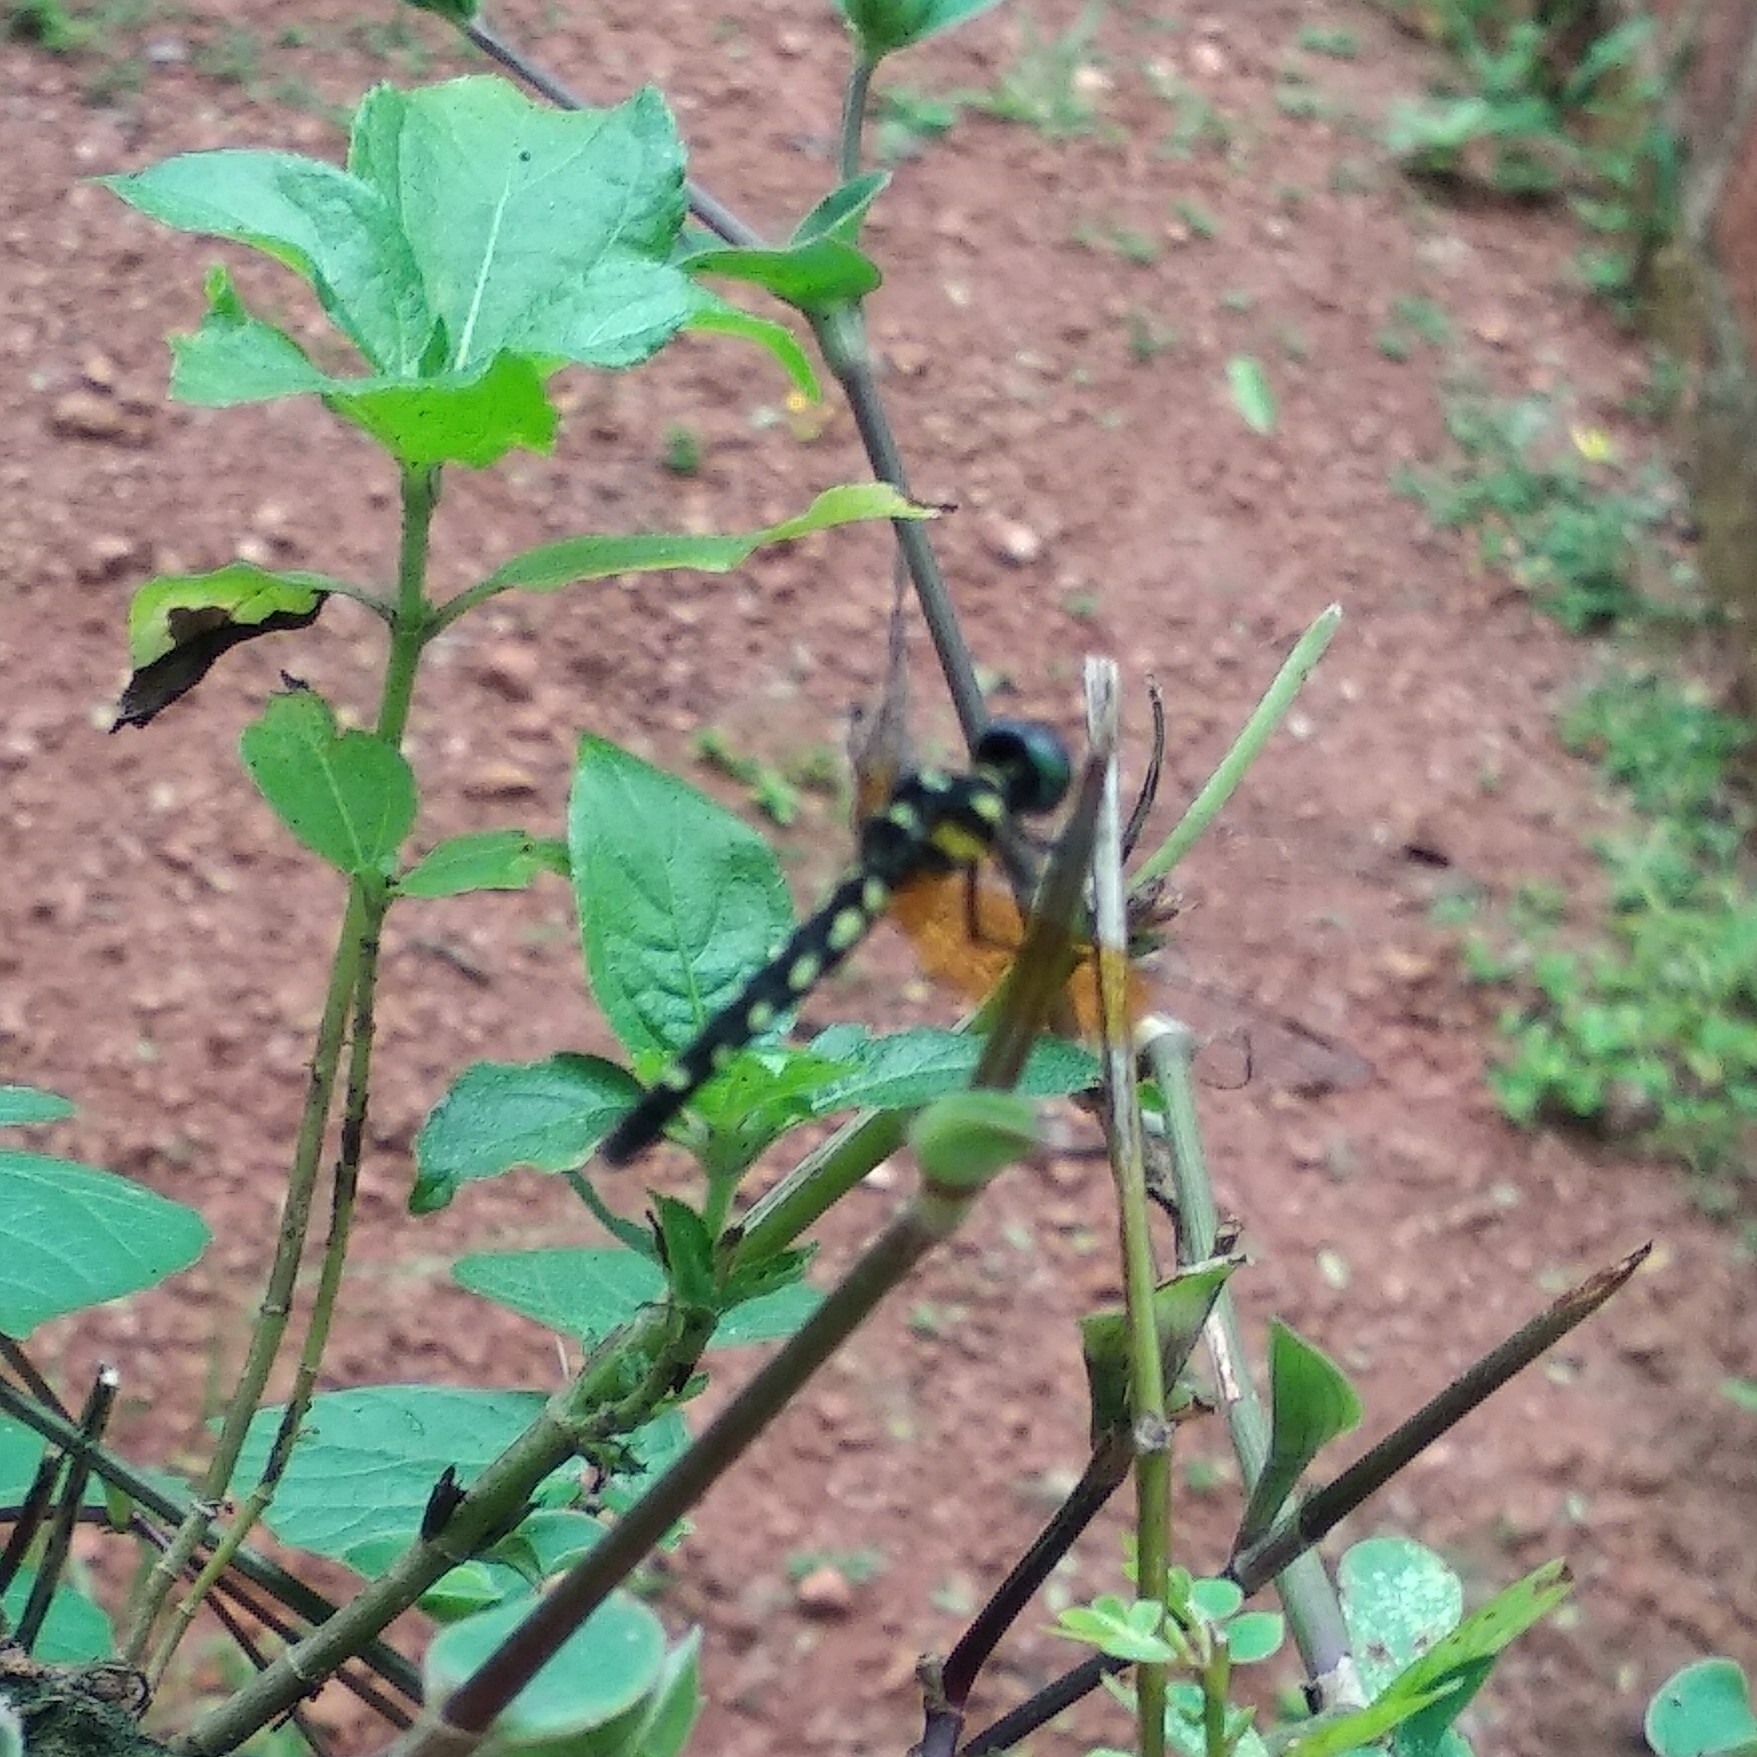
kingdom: Animalia
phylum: Arthropoda
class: Insecta
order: Odonata
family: Libellulidae
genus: Tetrathemis
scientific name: Tetrathemis platyptera
